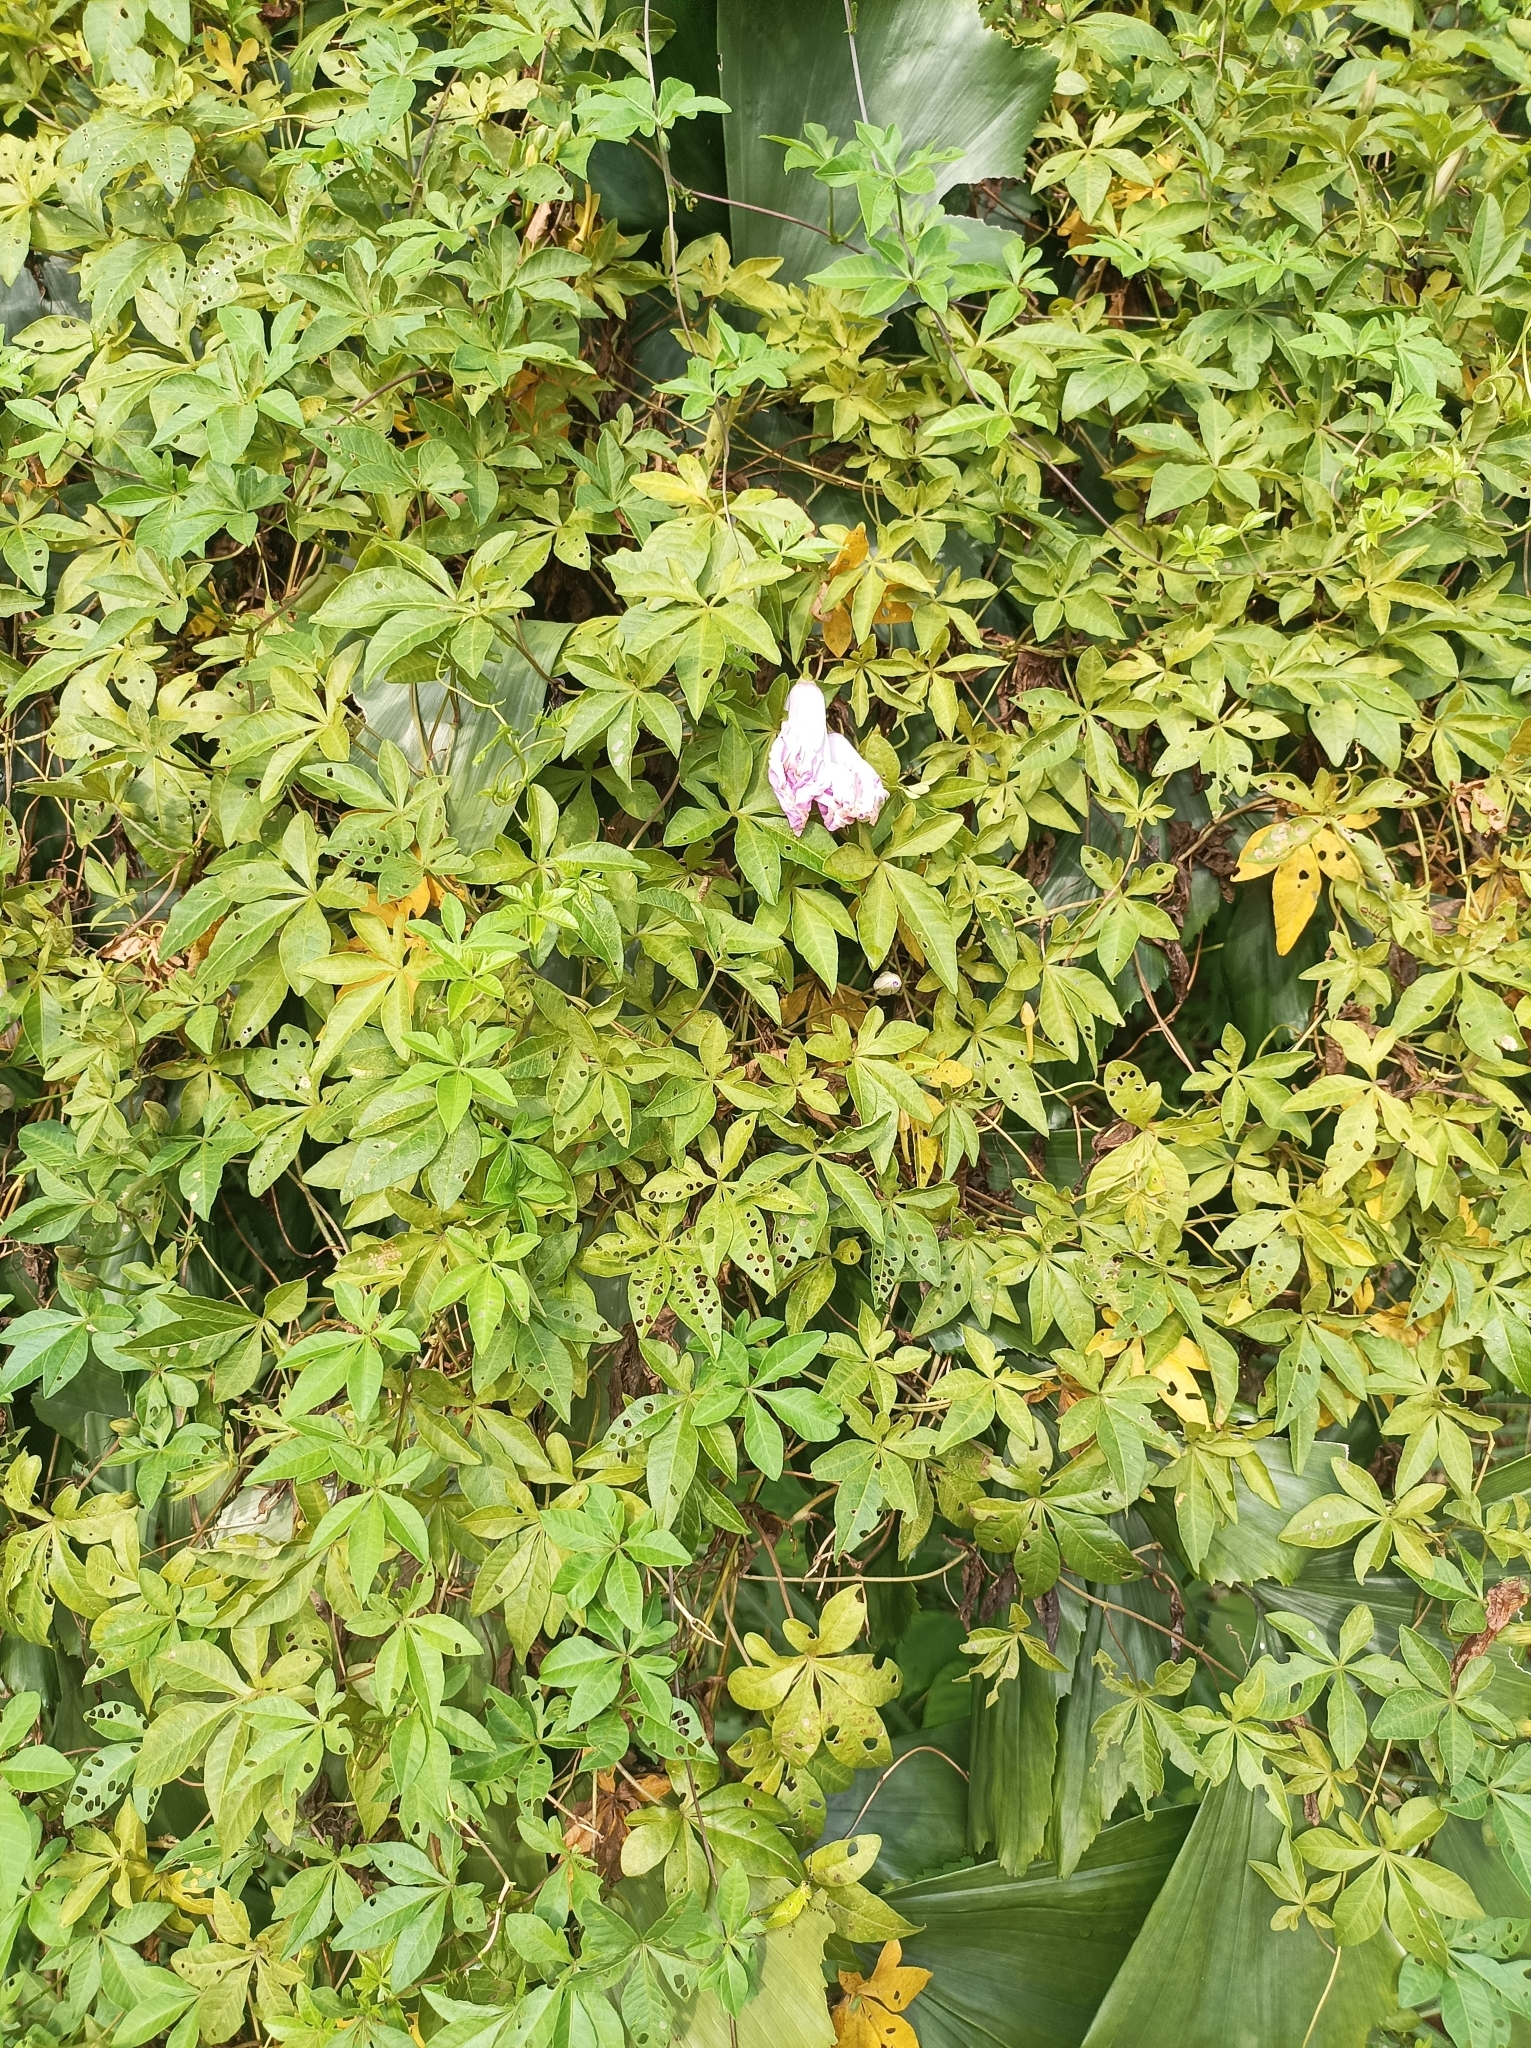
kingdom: Plantae
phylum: Tracheophyta
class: Magnoliopsida
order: Solanales
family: Convolvulaceae
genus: Ipomoea
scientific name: Ipomoea cairica
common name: Mile a minute vine
